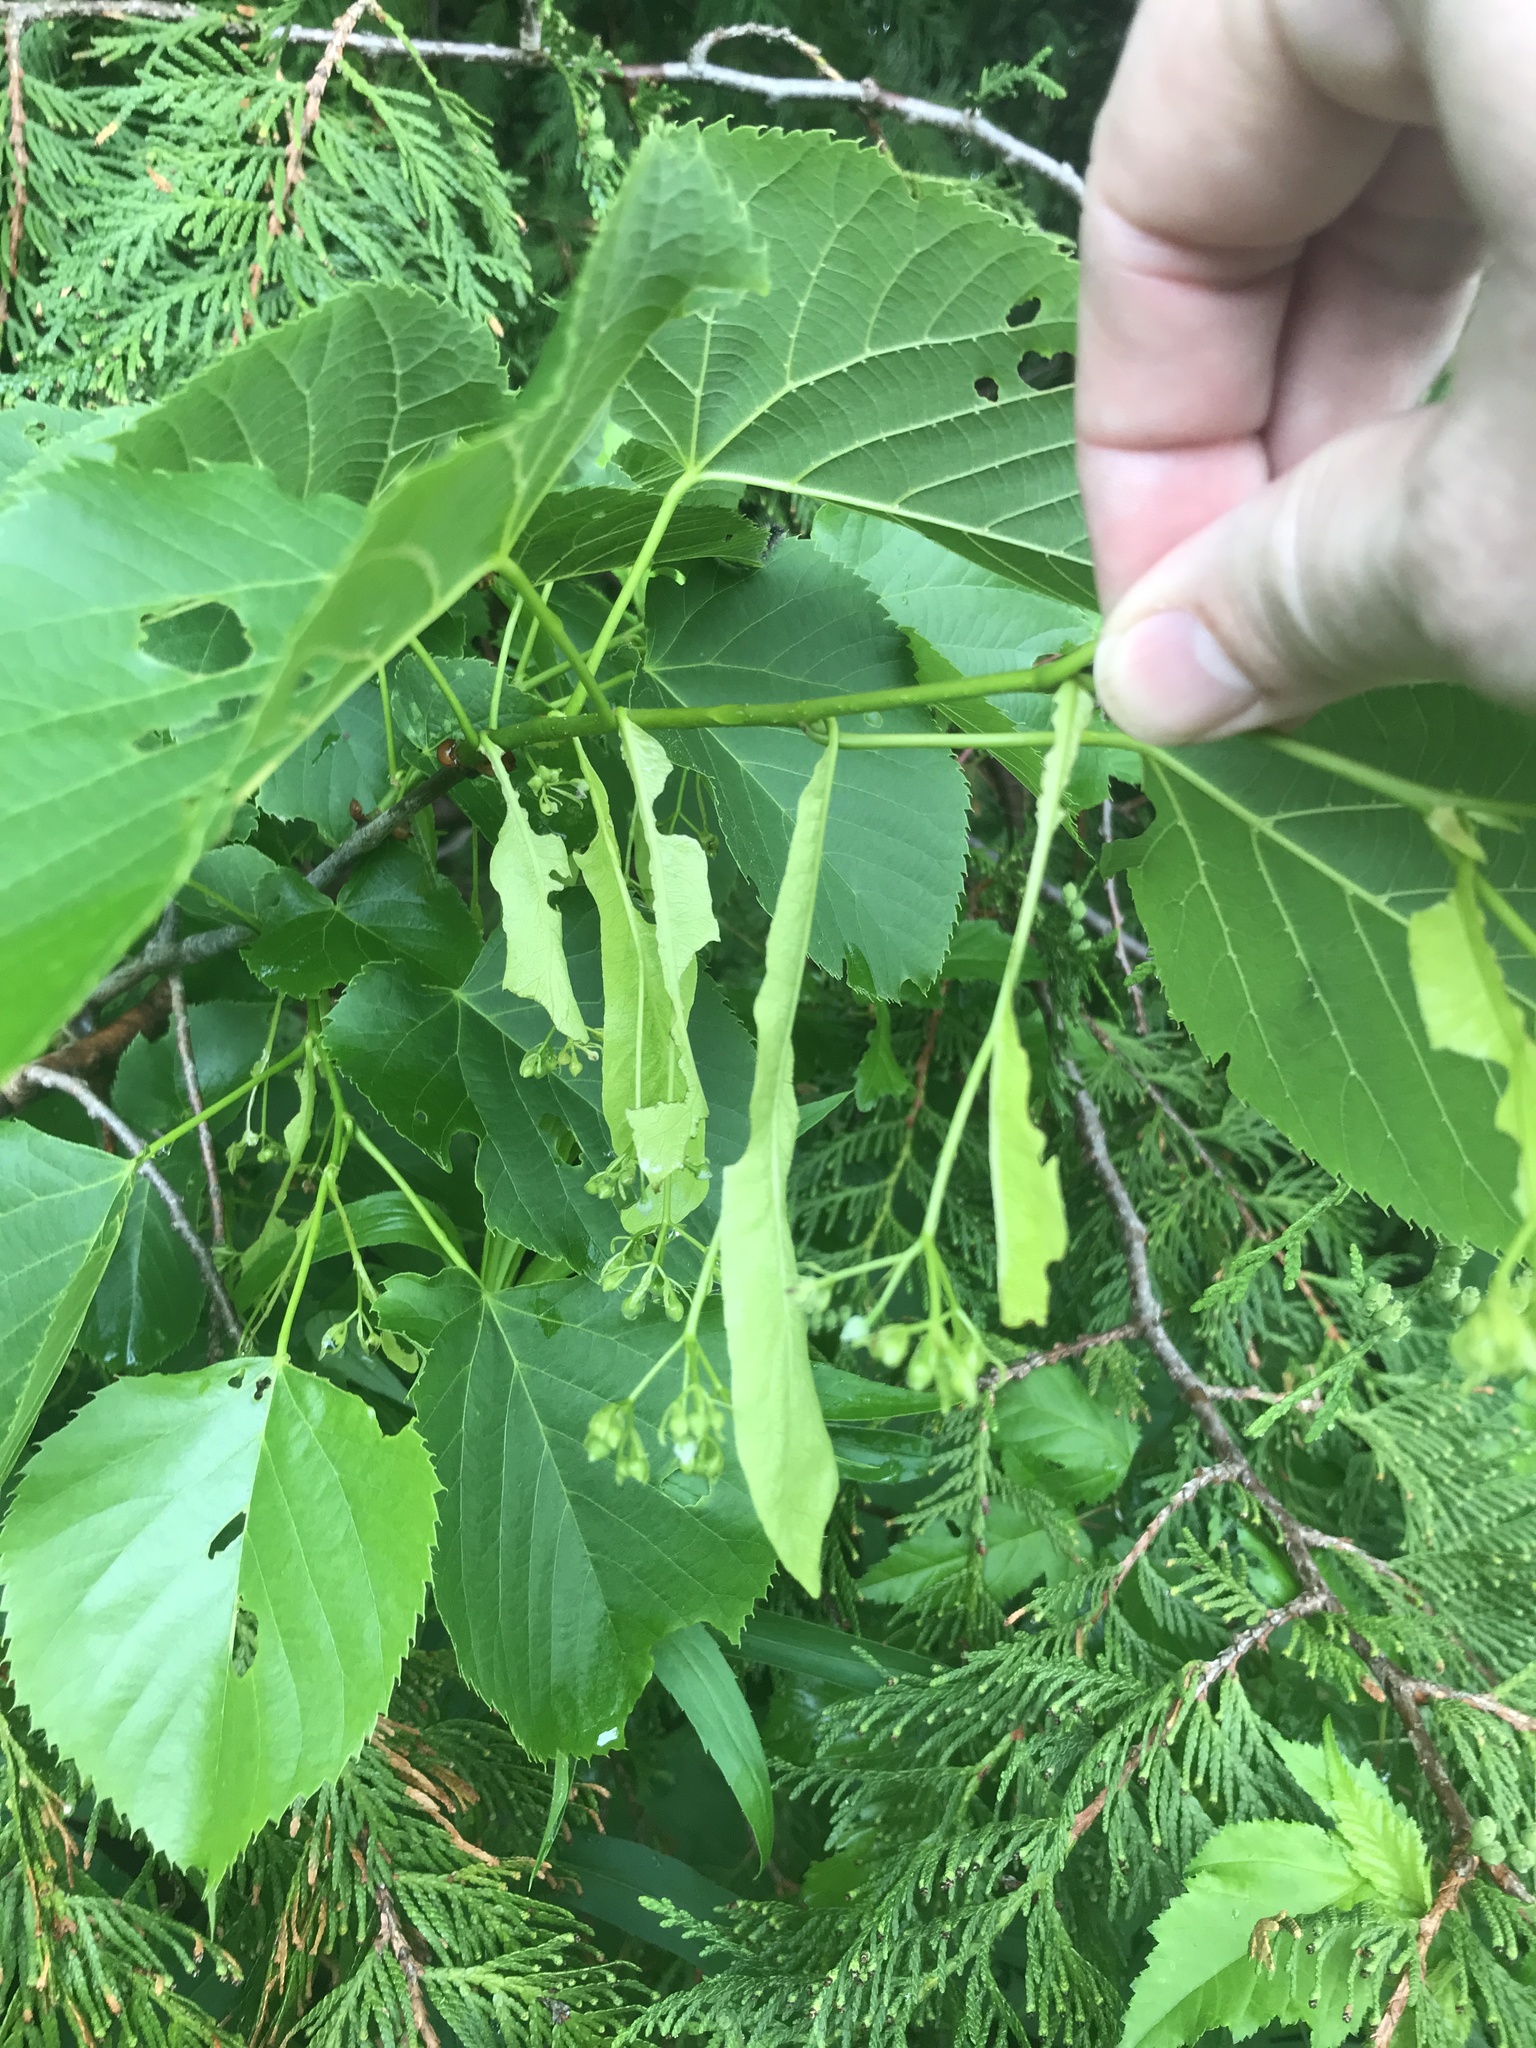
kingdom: Plantae
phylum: Tracheophyta
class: Magnoliopsida
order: Malvales
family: Malvaceae
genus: Tilia
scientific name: Tilia americana
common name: Basswood
